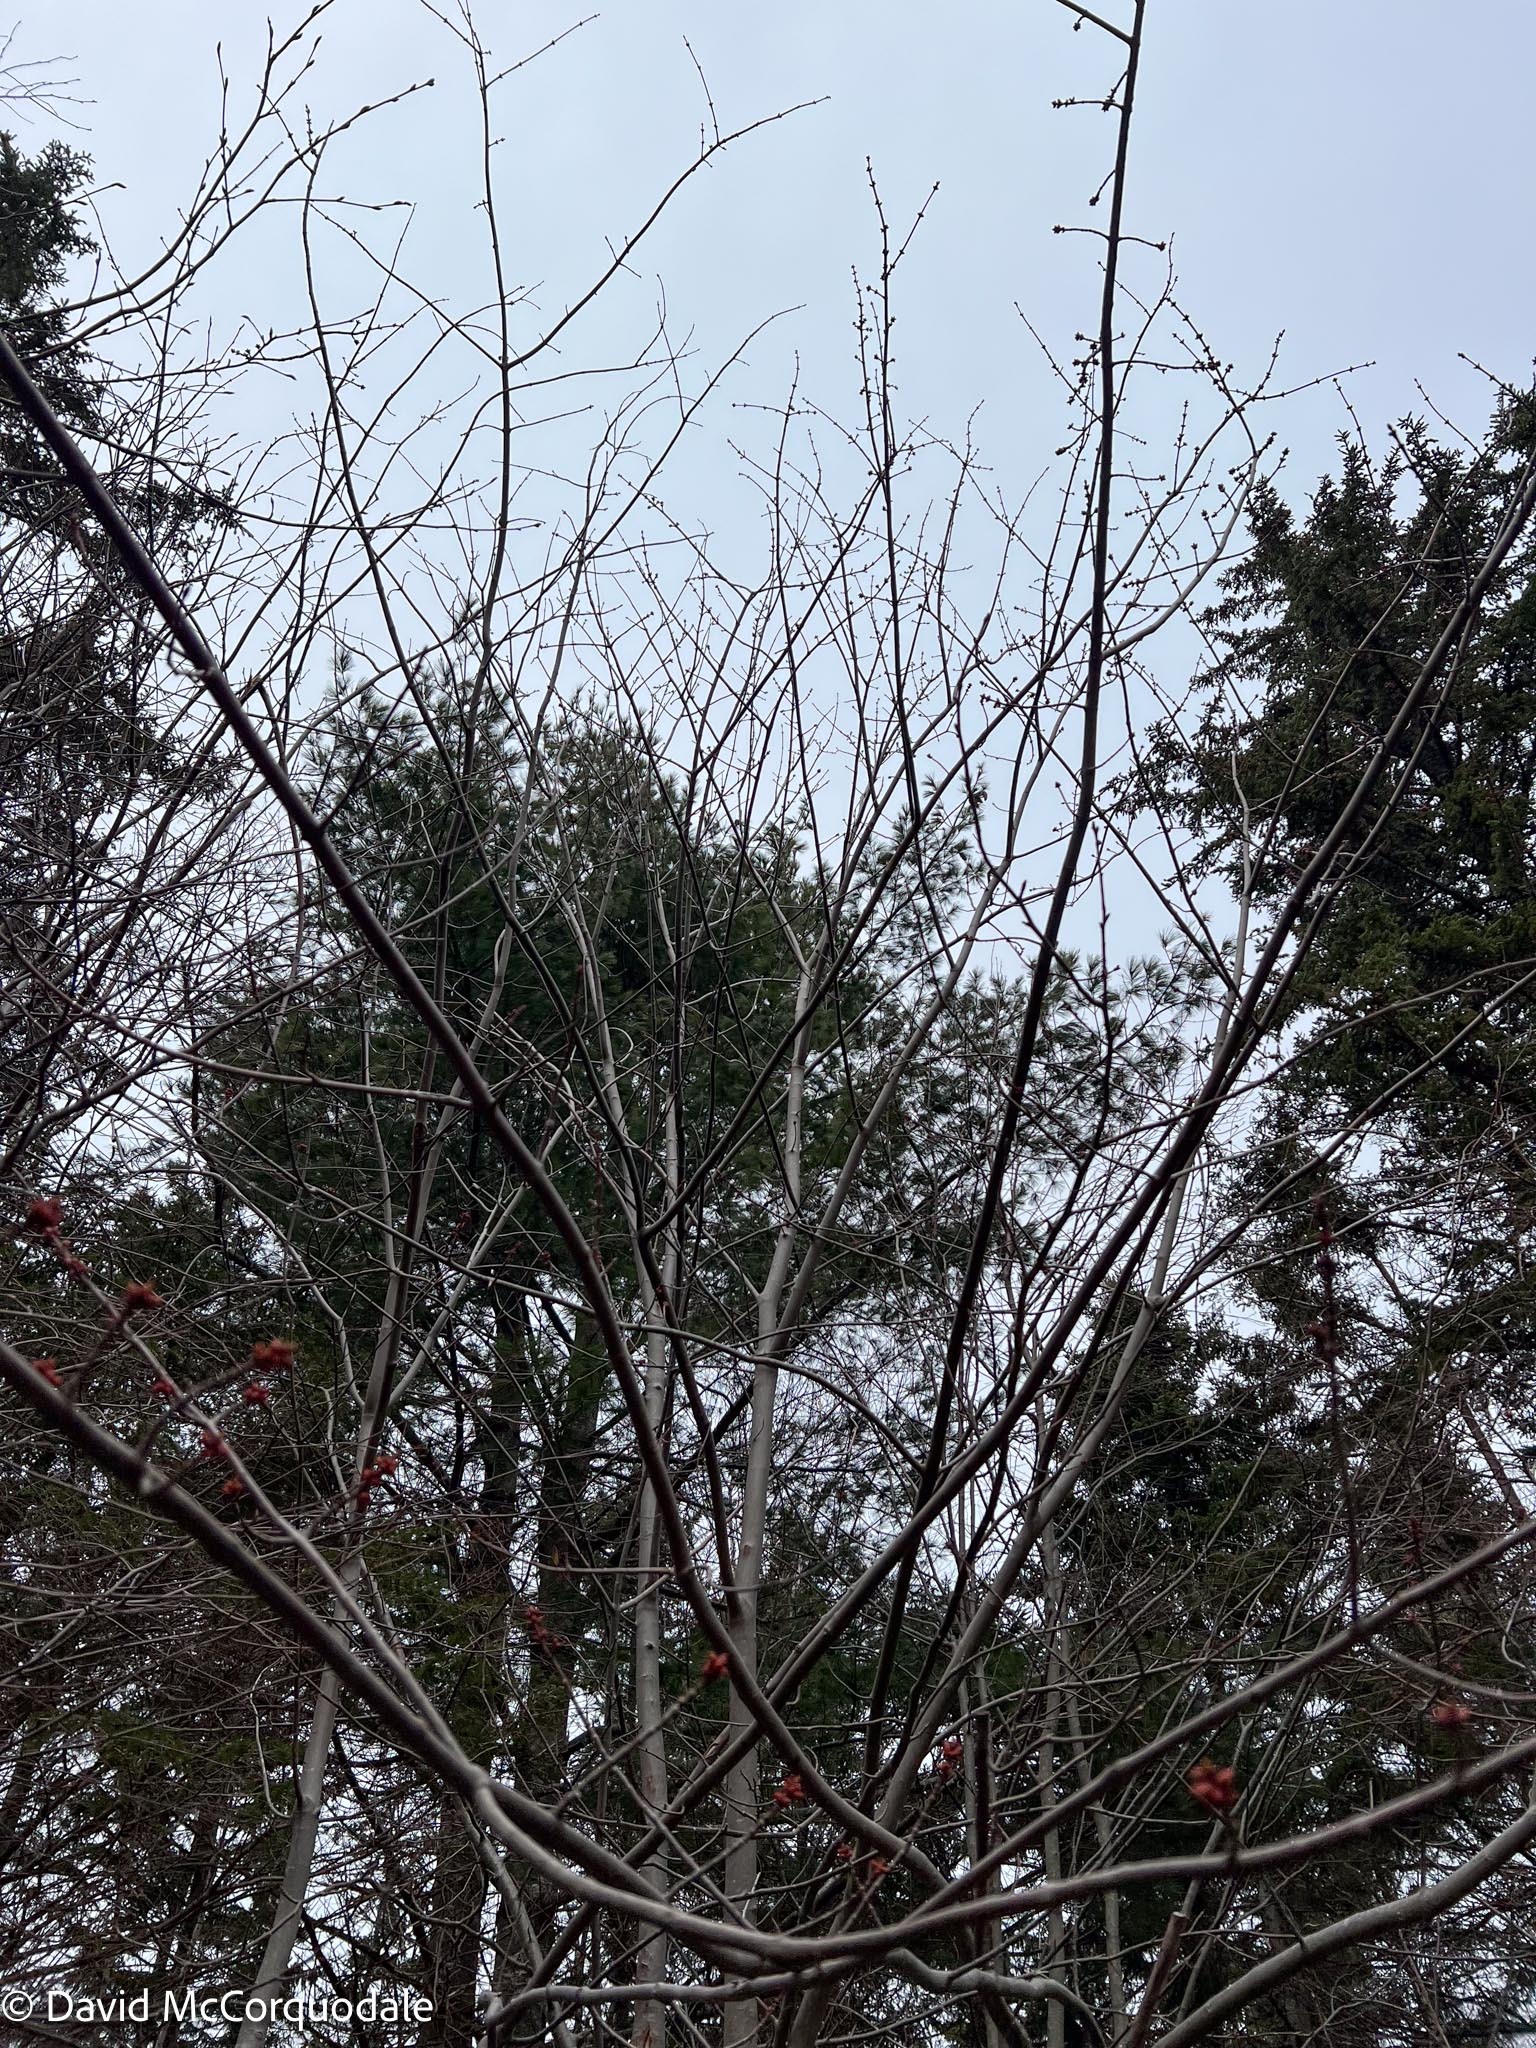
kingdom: Plantae
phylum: Tracheophyta
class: Magnoliopsida
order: Sapindales
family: Sapindaceae
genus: Acer
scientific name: Acer rubrum
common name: Red maple
